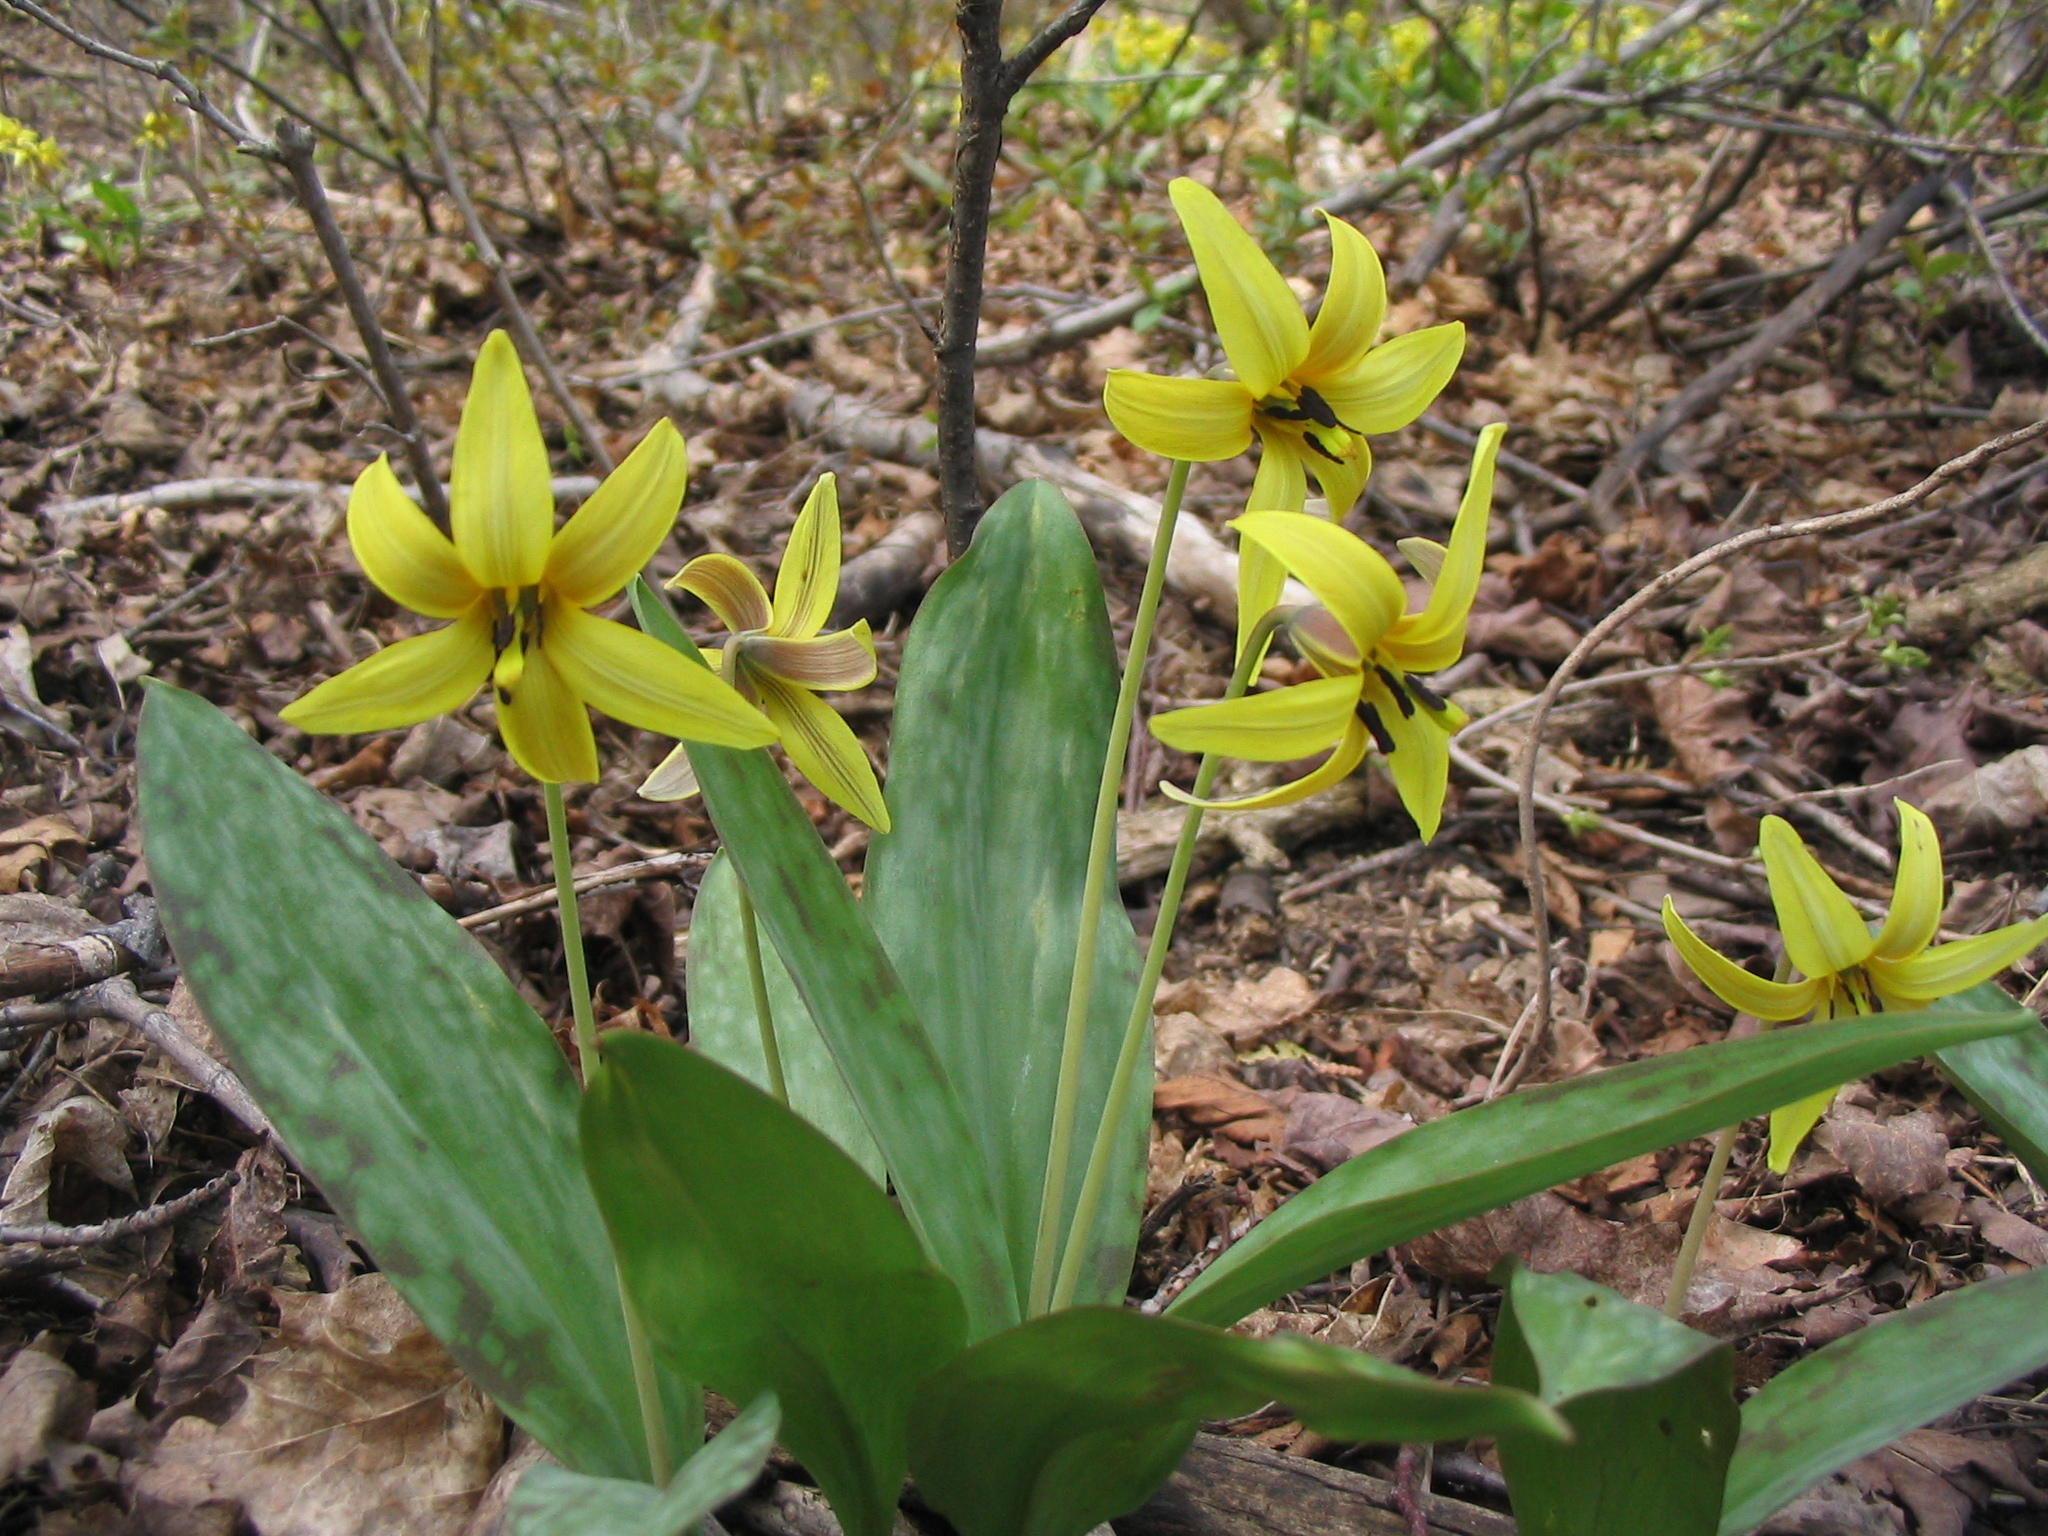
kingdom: Plantae
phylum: Tracheophyta
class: Liliopsida
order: Liliales
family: Liliaceae
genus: Erythronium
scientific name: Erythronium americanum
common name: Yellow adder's-tongue
